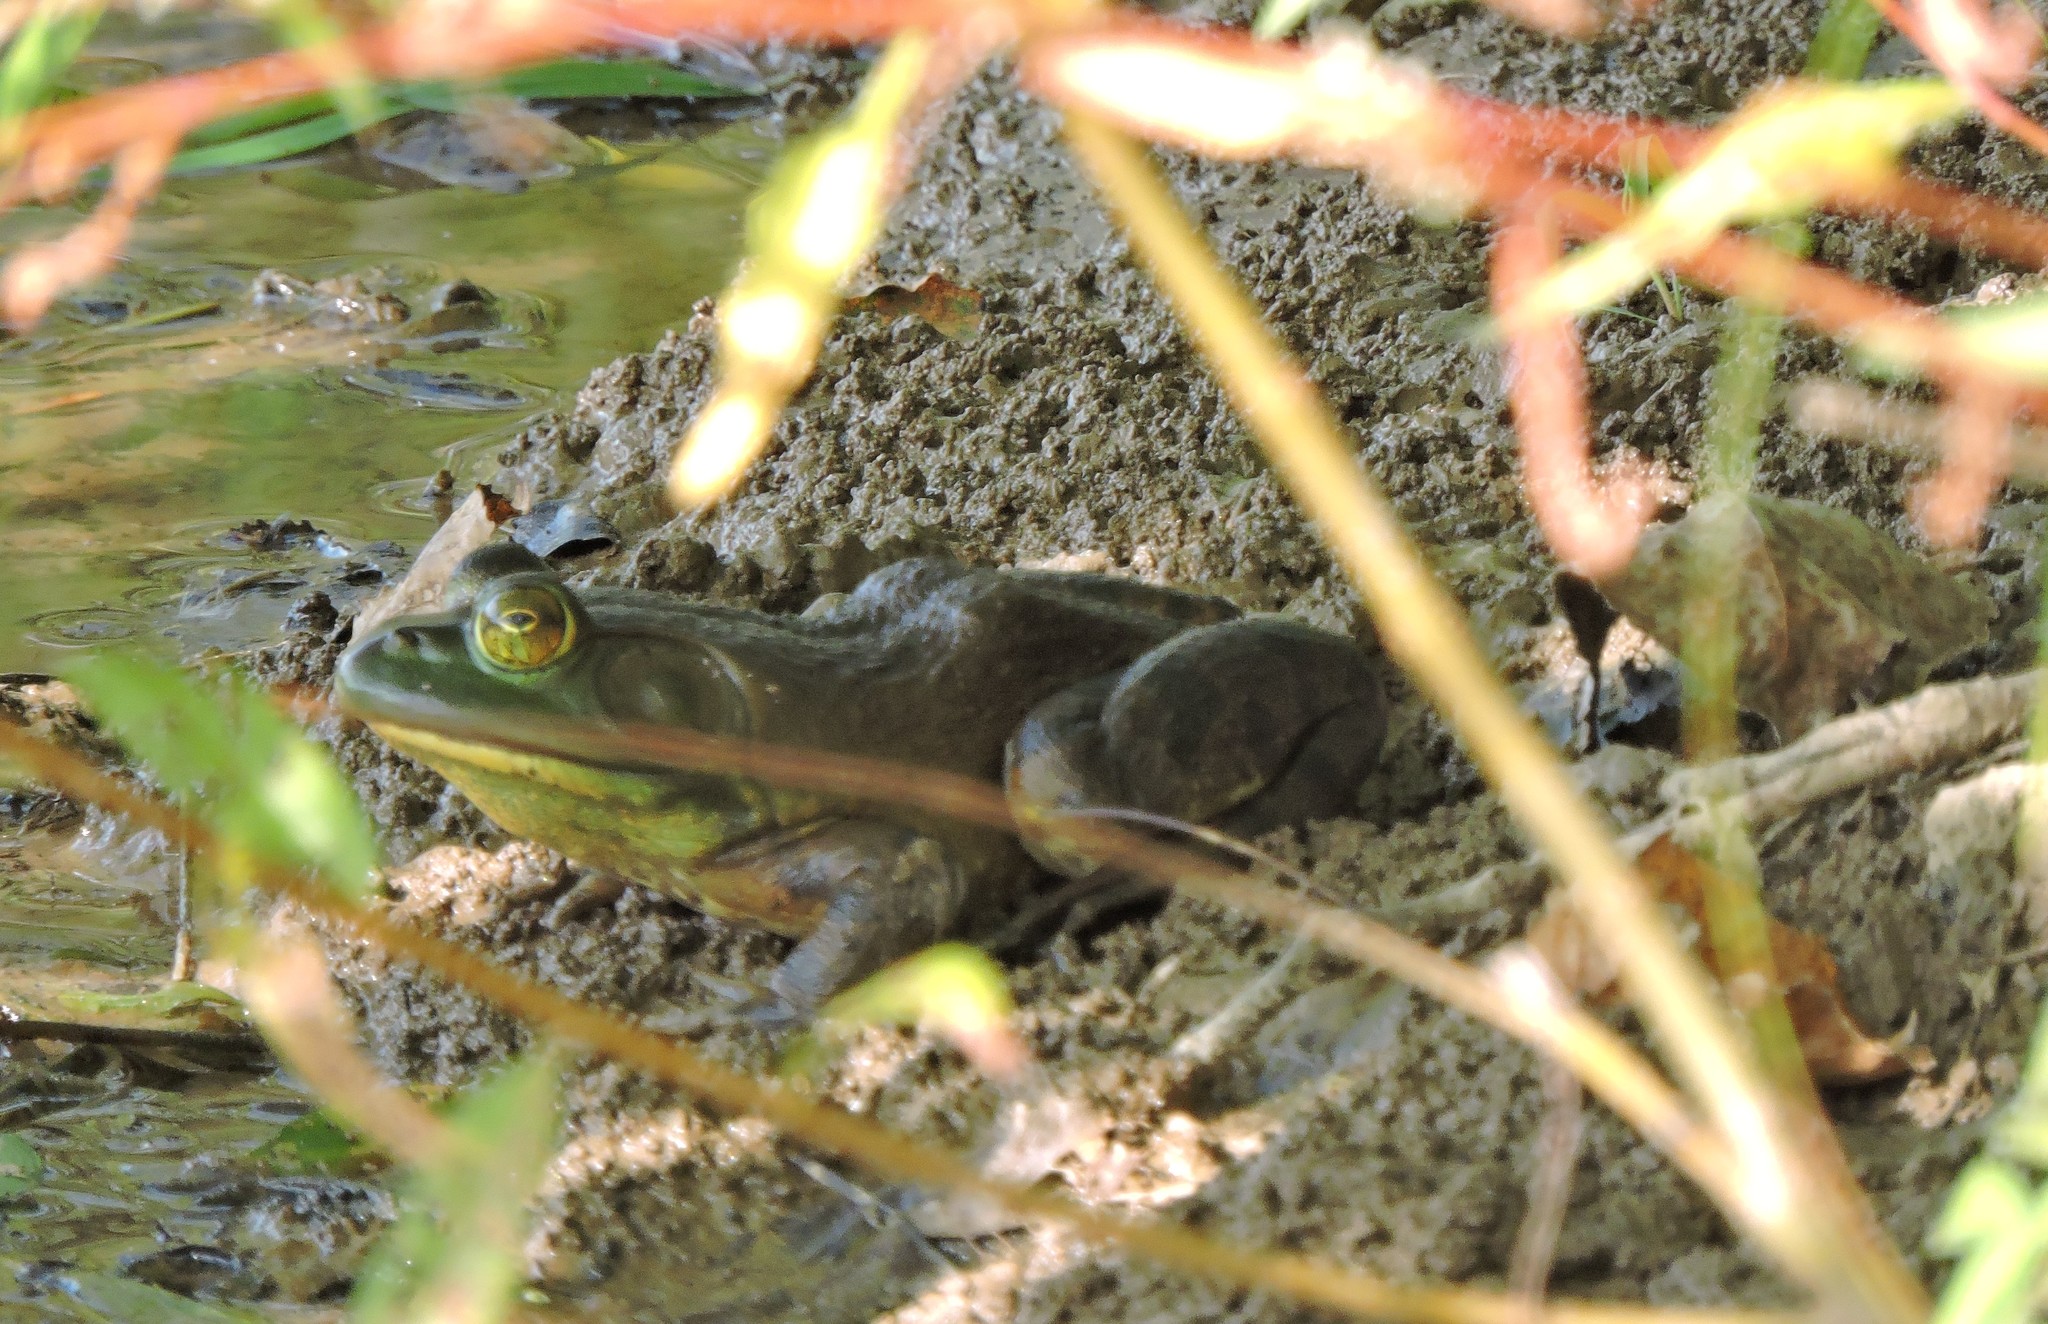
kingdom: Animalia
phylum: Chordata
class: Amphibia
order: Anura
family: Ranidae
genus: Lithobates
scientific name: Lithobates catesbeianus
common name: American bullfrog
